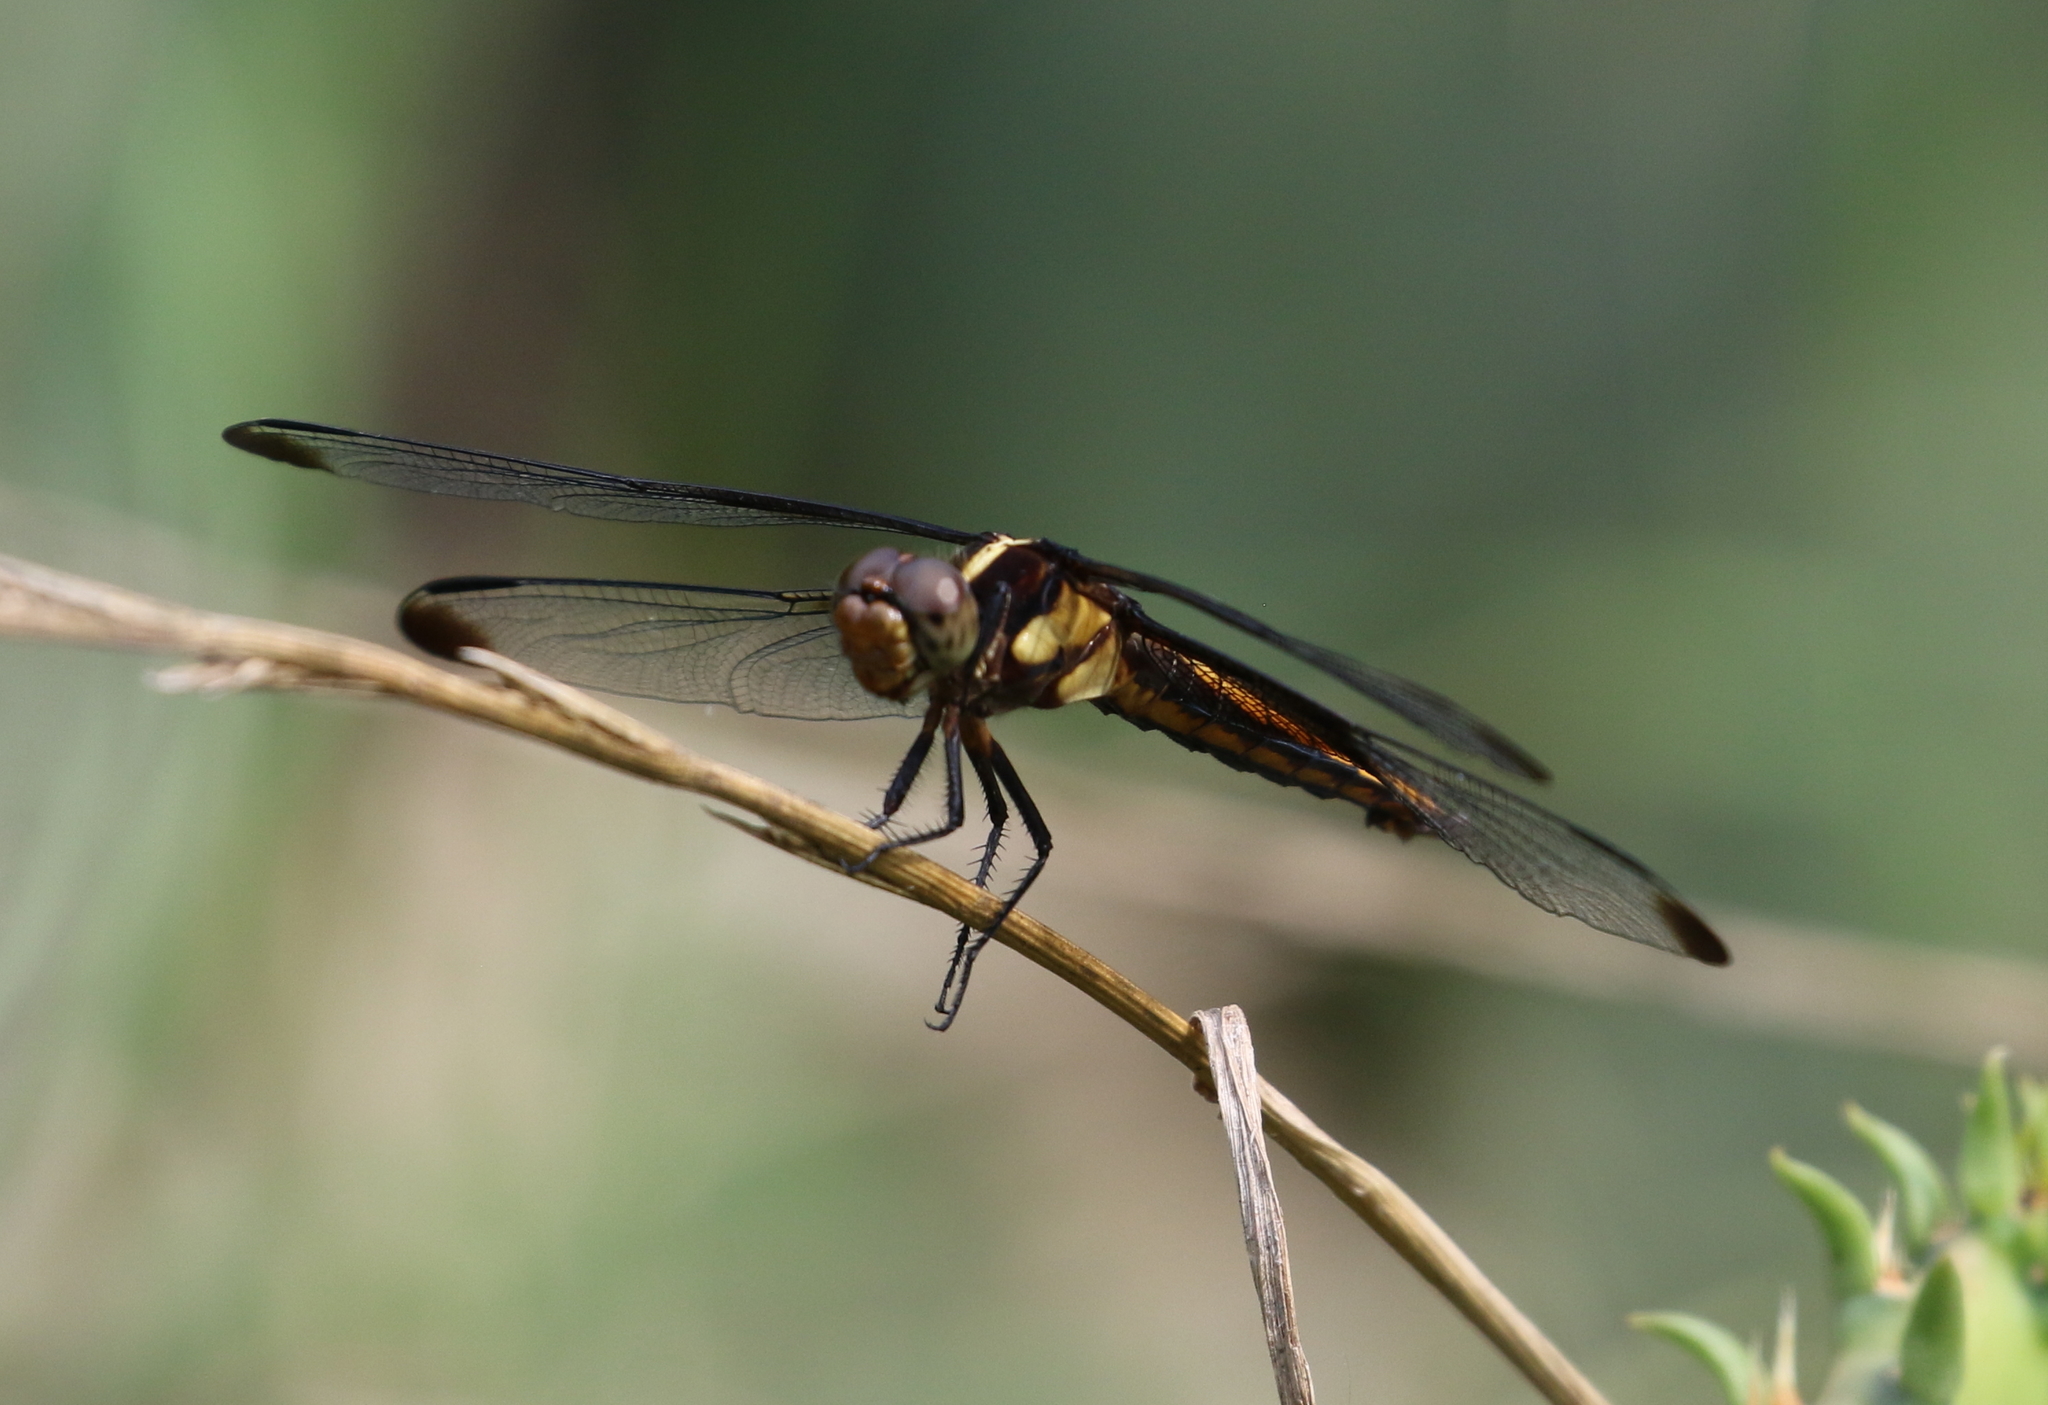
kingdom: Animalia
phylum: Arthropoda
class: Insecta
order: Odonata
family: Libellulidae
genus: Libellula
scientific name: Libellula luctuosa
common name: Widow skimmer
